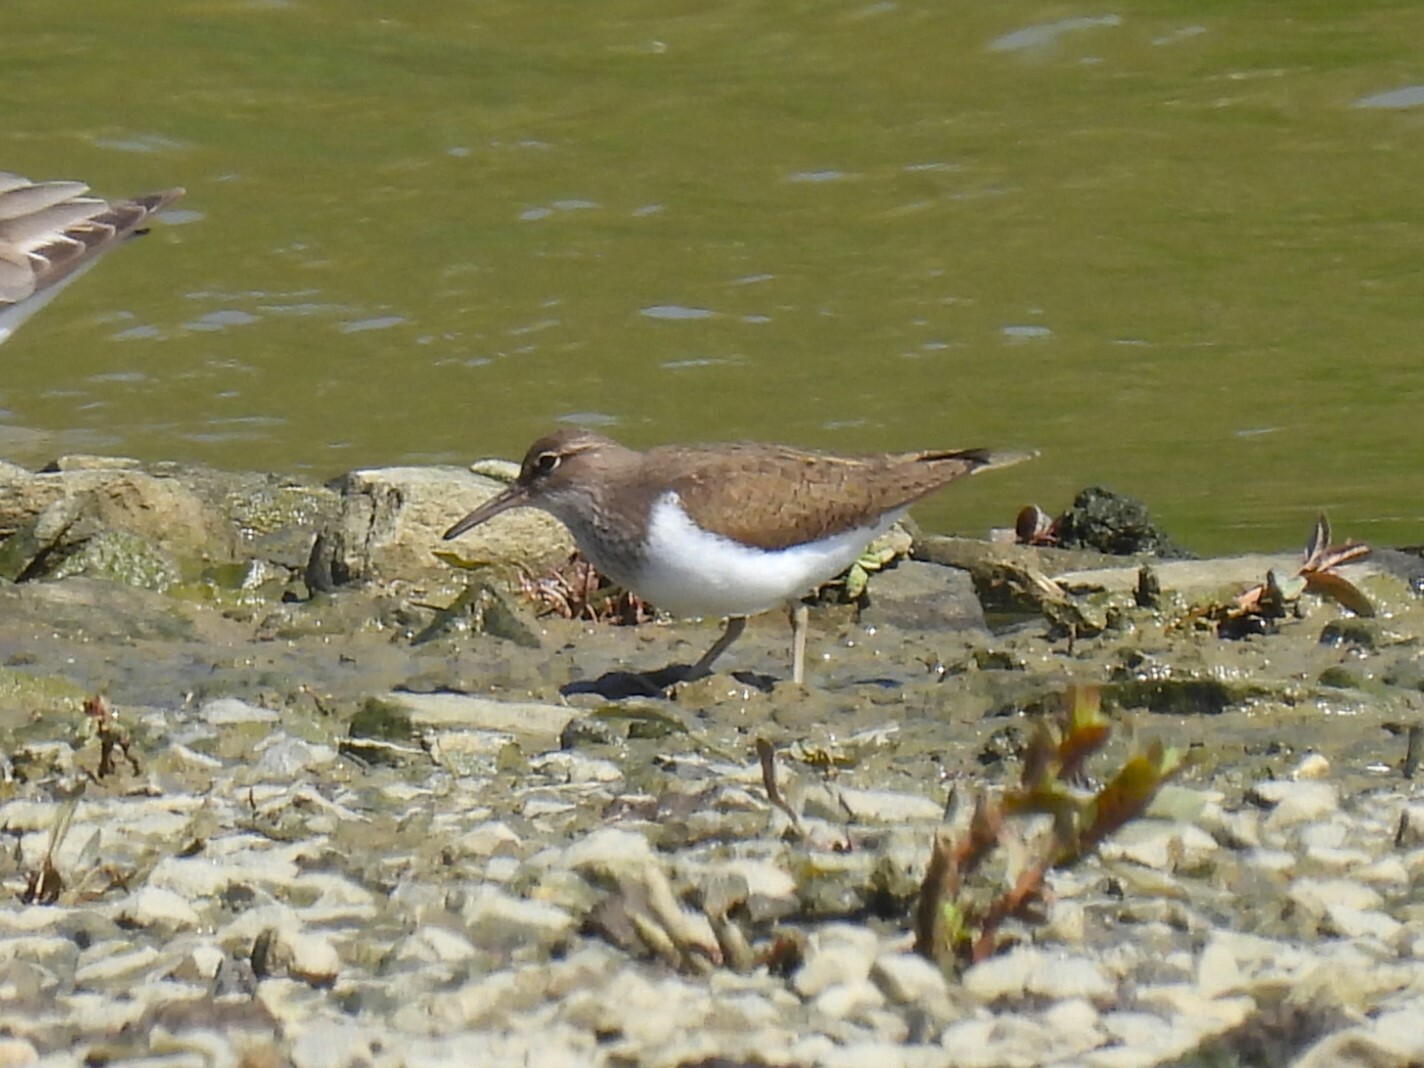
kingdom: Animalia
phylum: Chordata
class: Aves
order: Charadriiformes
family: Scolopacidae
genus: Actitis
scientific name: Actitis hypoleucos
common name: Common sandpiper
